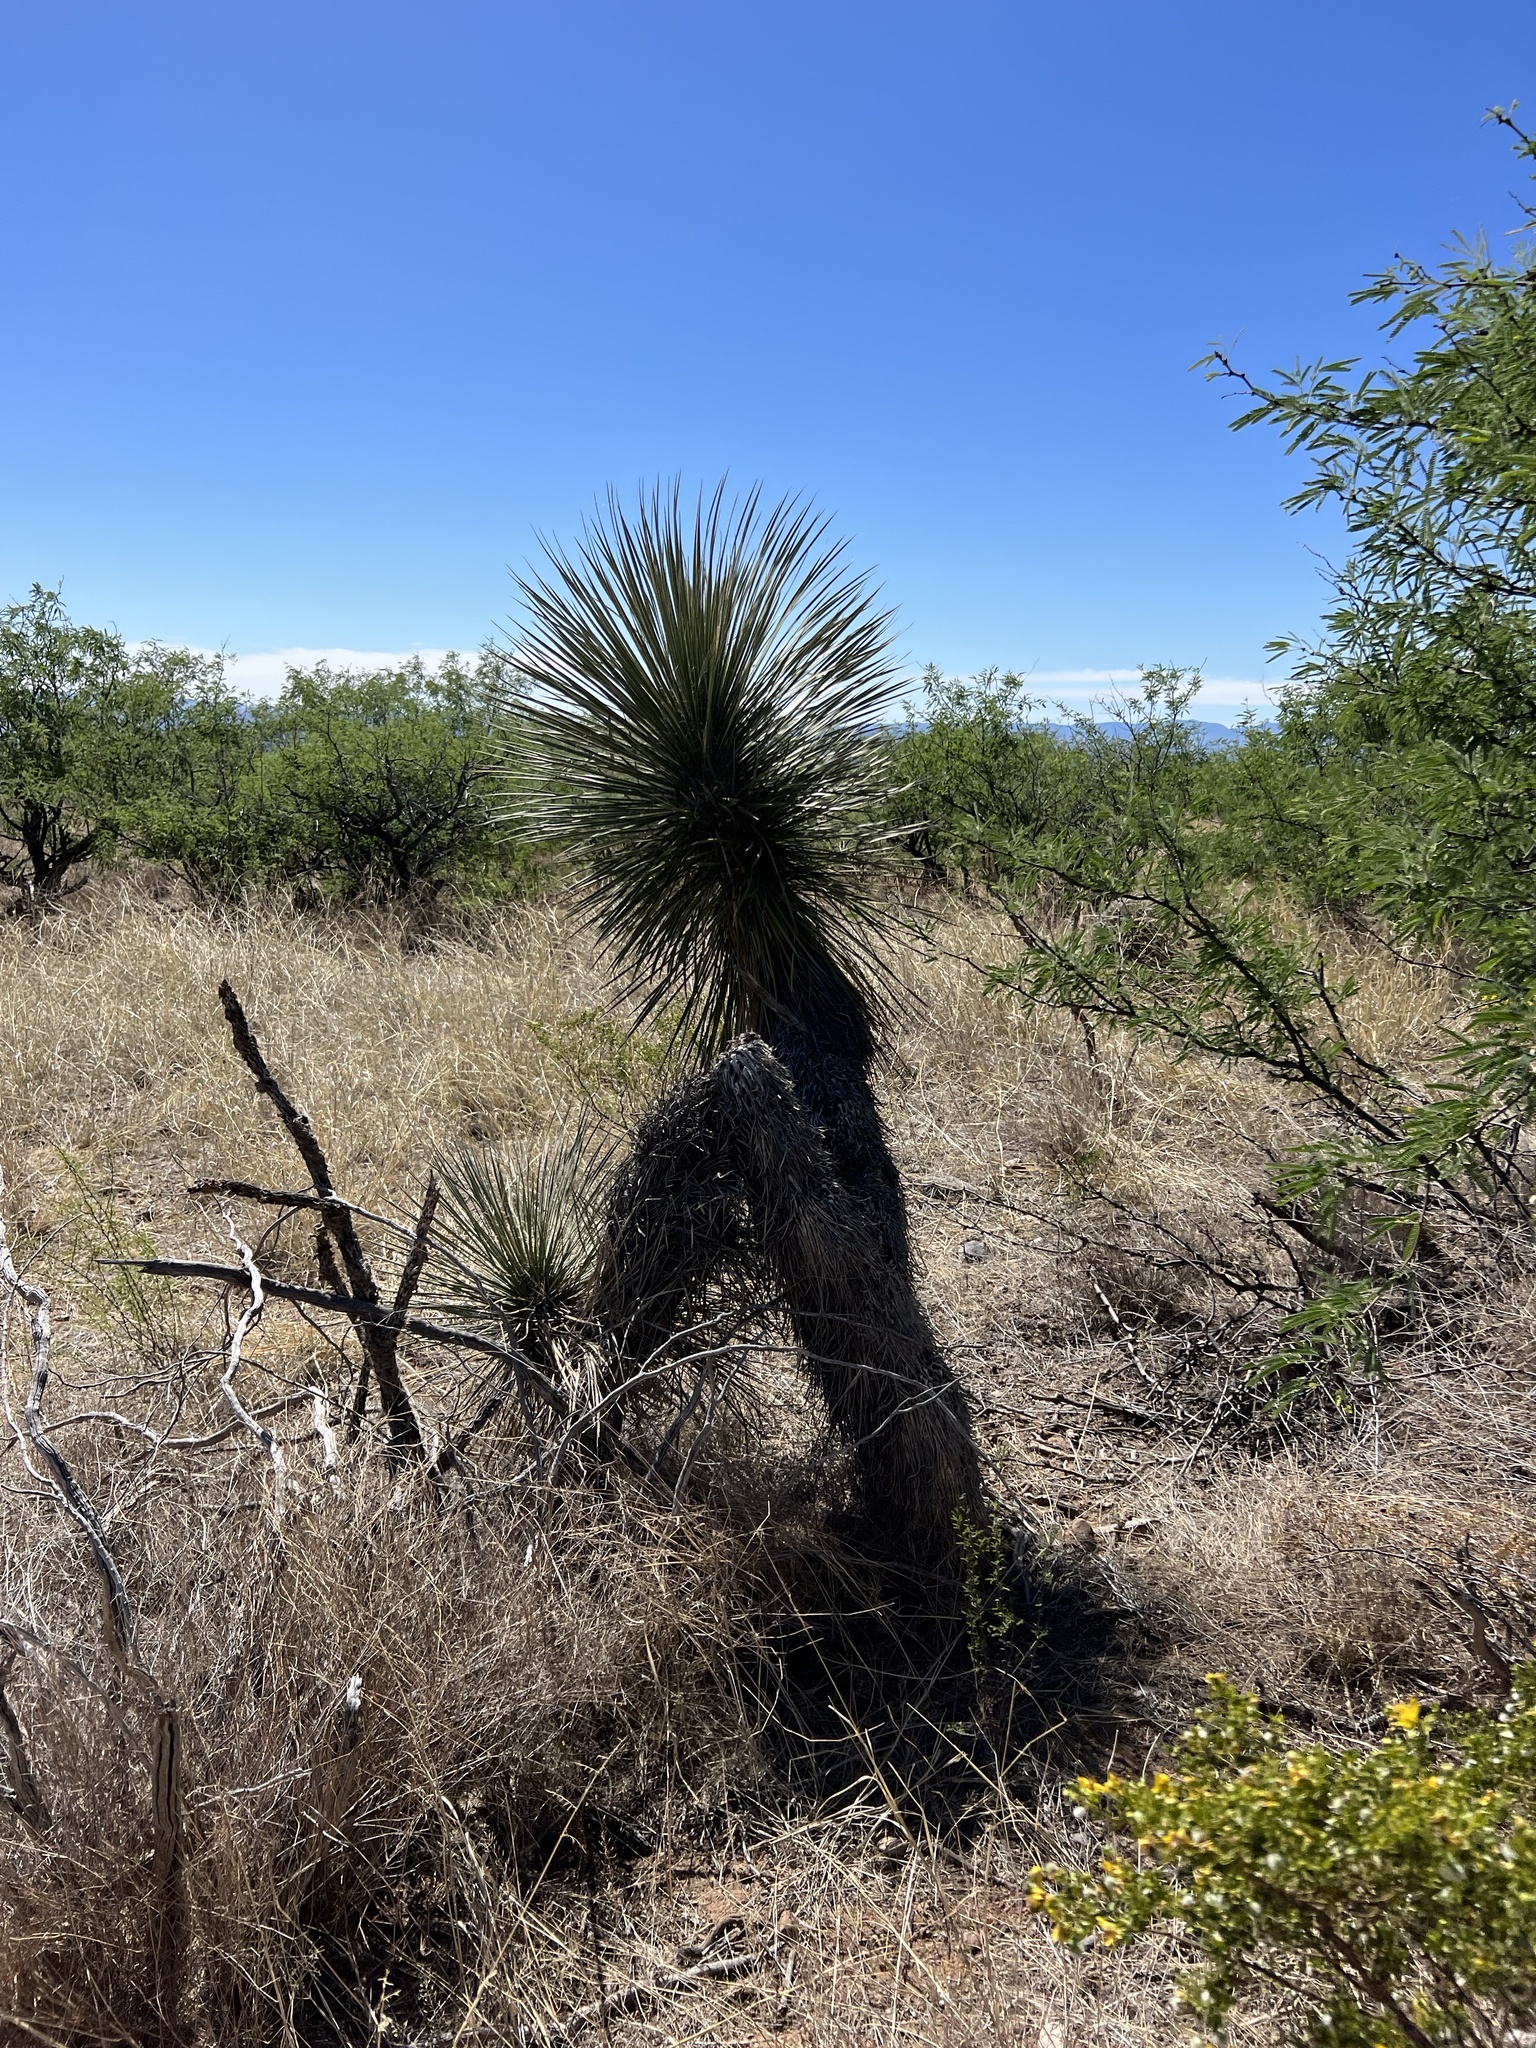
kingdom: Plantae
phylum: Tracheophyta
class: Liliopsida
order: Asparagales
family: Asparagaceae
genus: Yucca
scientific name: Yucca elata
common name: Palmella
